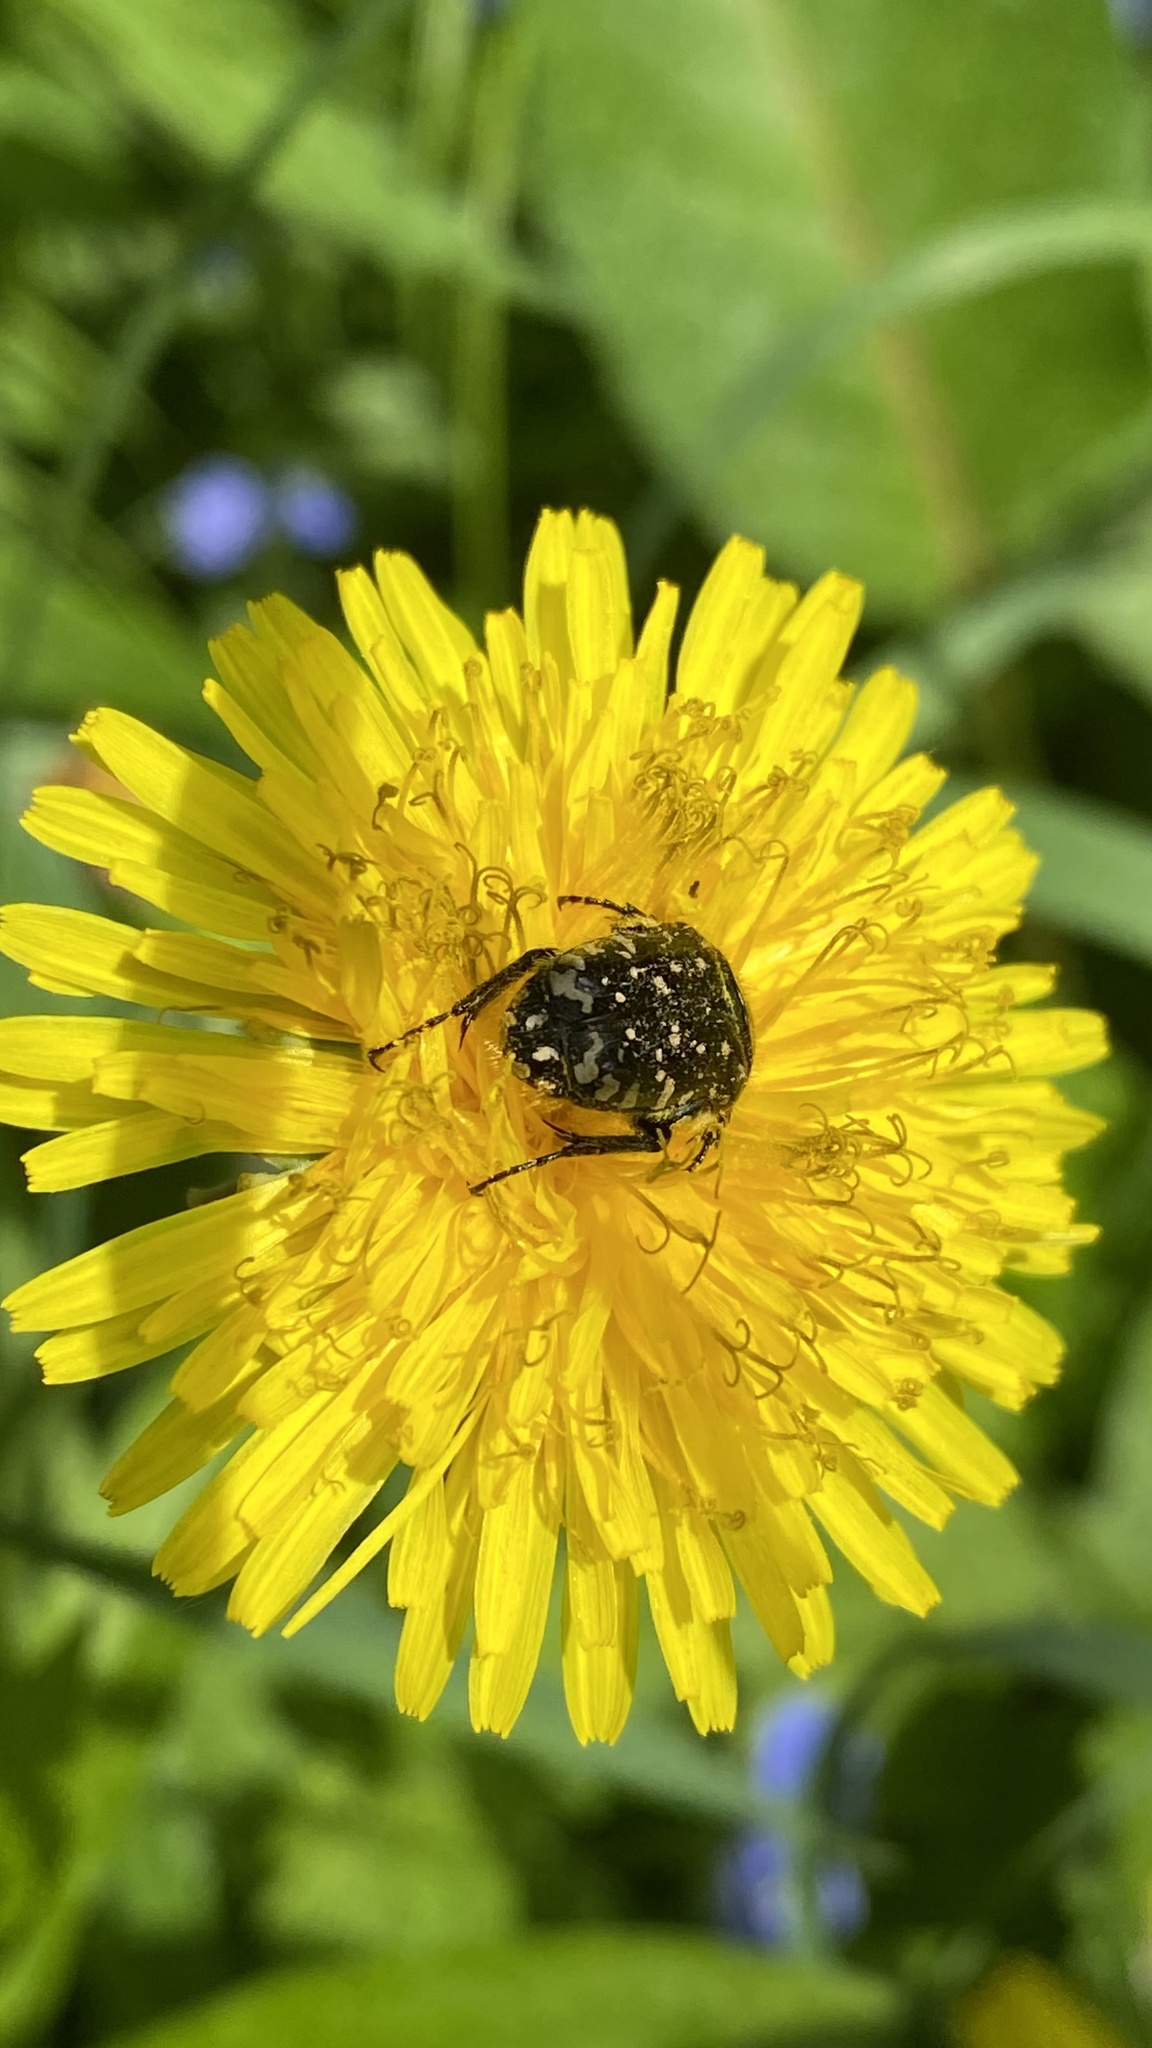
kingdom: Animalia
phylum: Arthropoda
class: Insecta
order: Coleoptera
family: Scarabaeidae
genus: Oxythyrea
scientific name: Oxythyrea funesta
